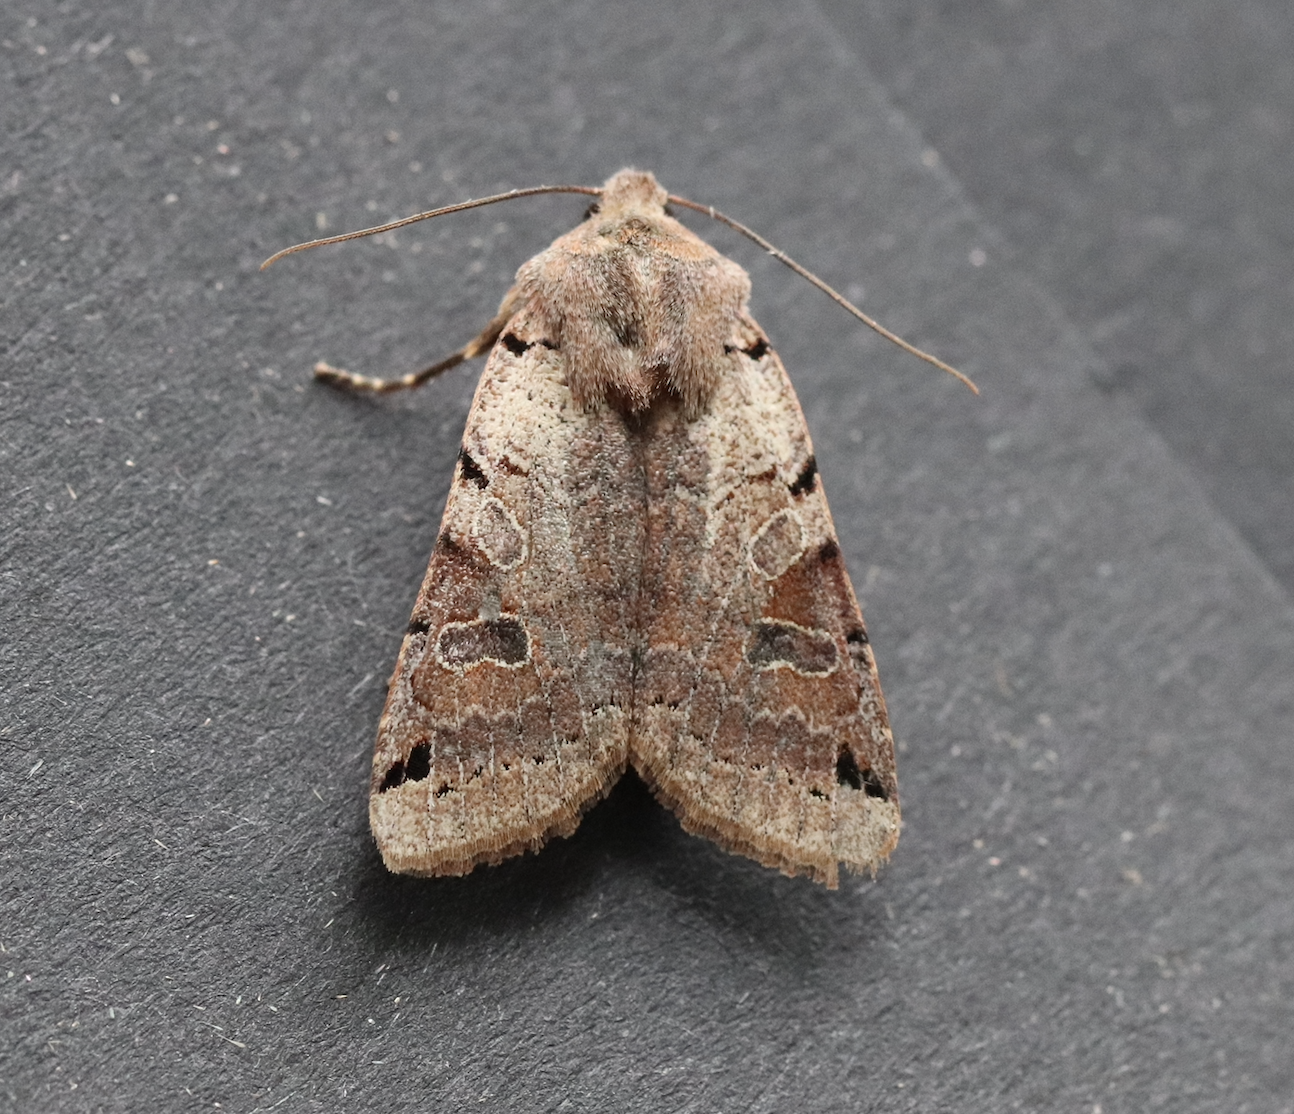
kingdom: Animalia
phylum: Arthropoda
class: Insecta
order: Lepidoptera
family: Noctuidae
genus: Agrochola
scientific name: Agrochola litura
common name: Brown-spot pinion
